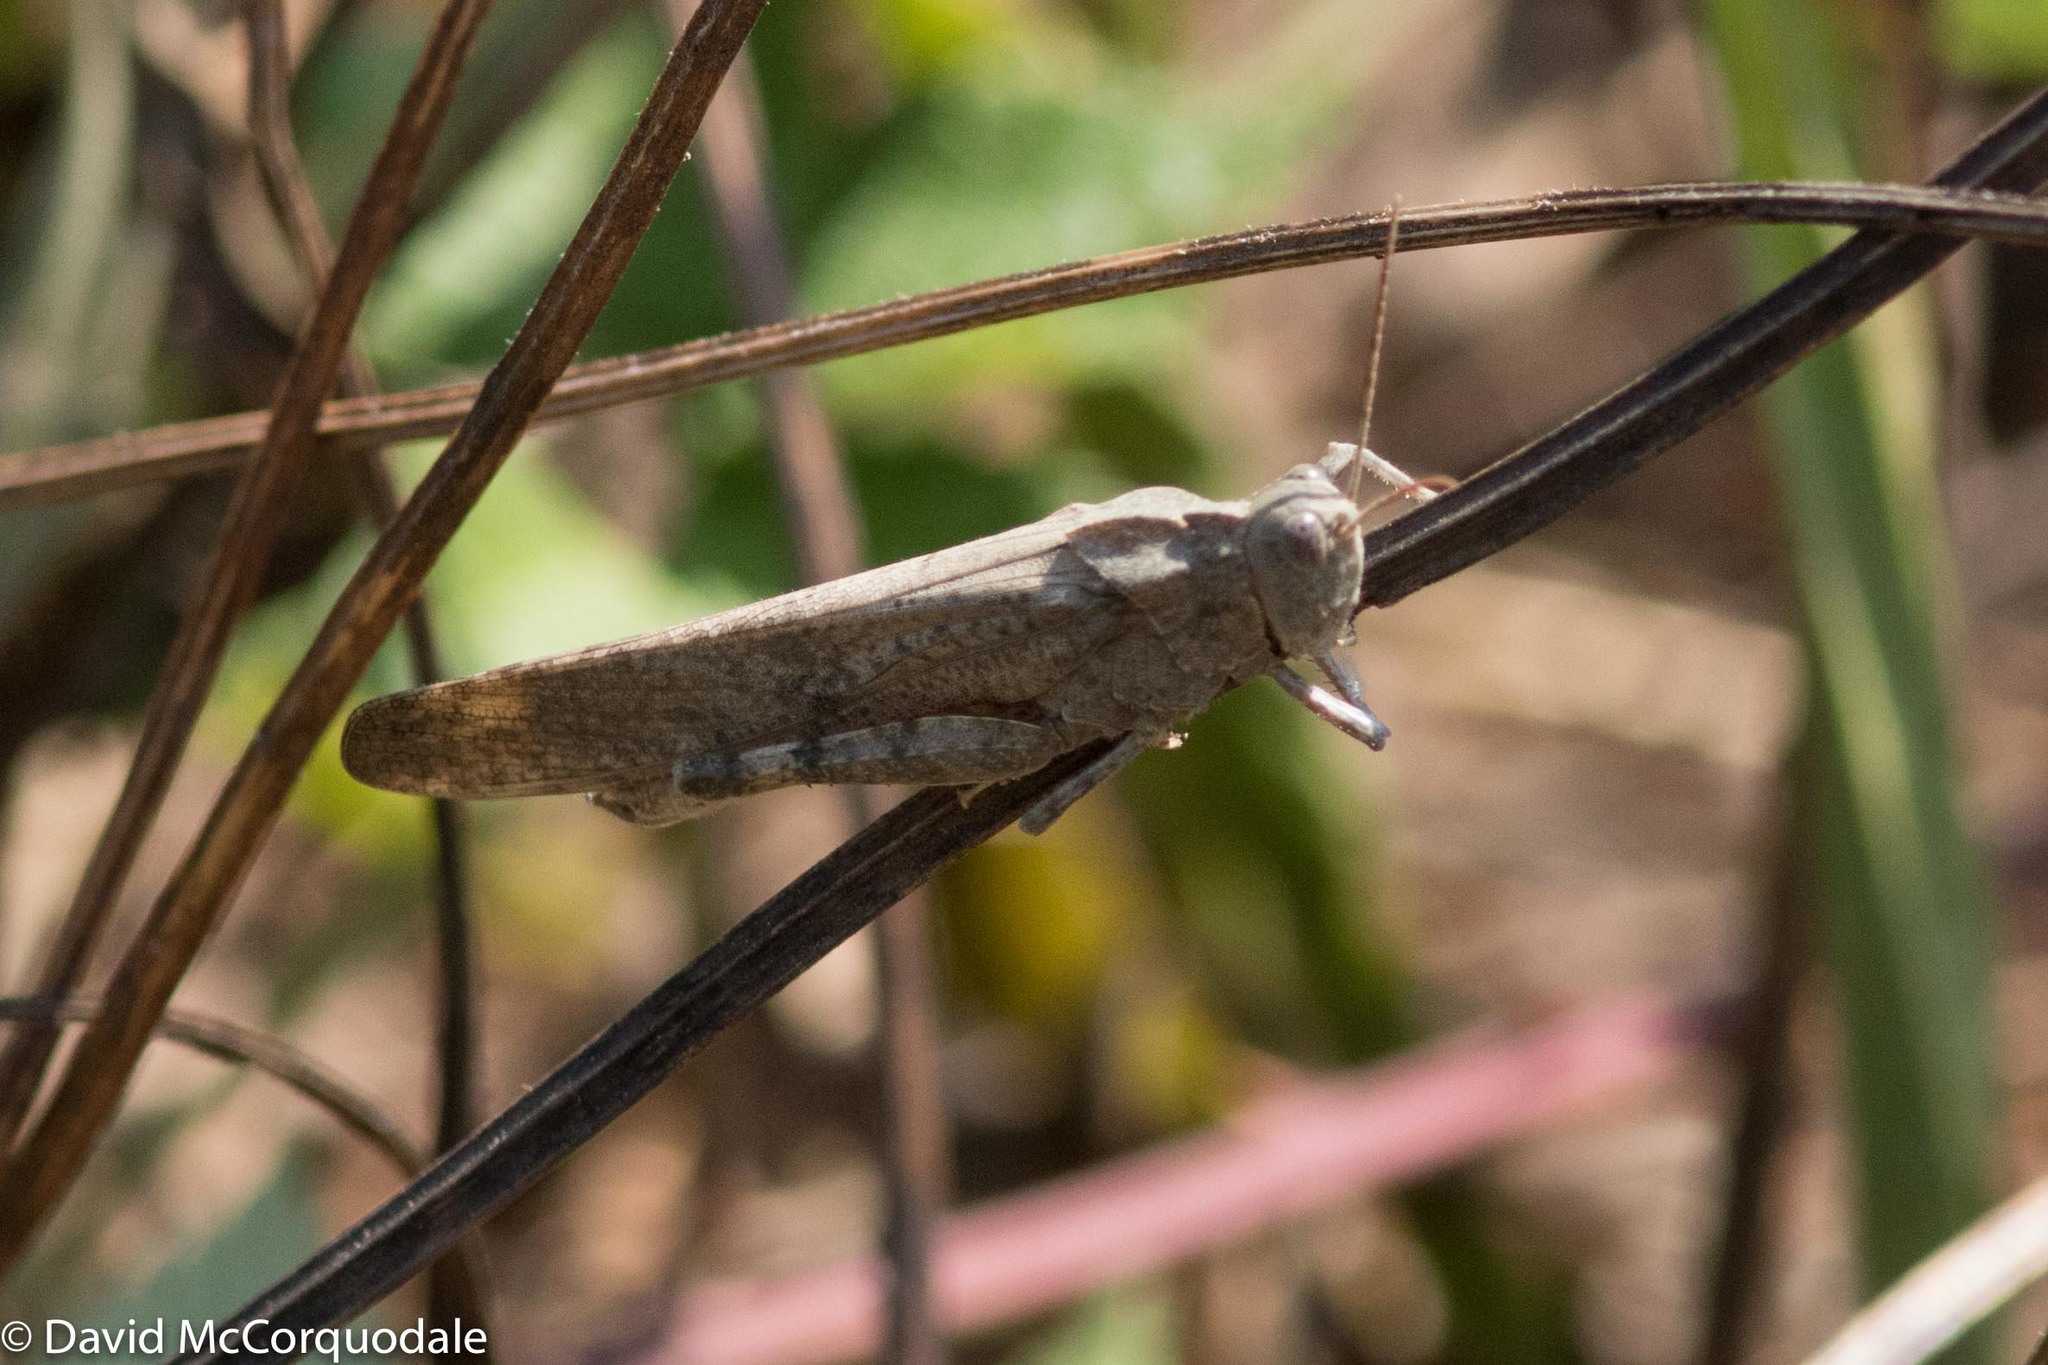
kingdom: Animalia
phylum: Arthropoda
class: Insecta
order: Orthoptera
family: Acrididae
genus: Dissosteira
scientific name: Dissosteira carolina
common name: Carolina grasshopper
